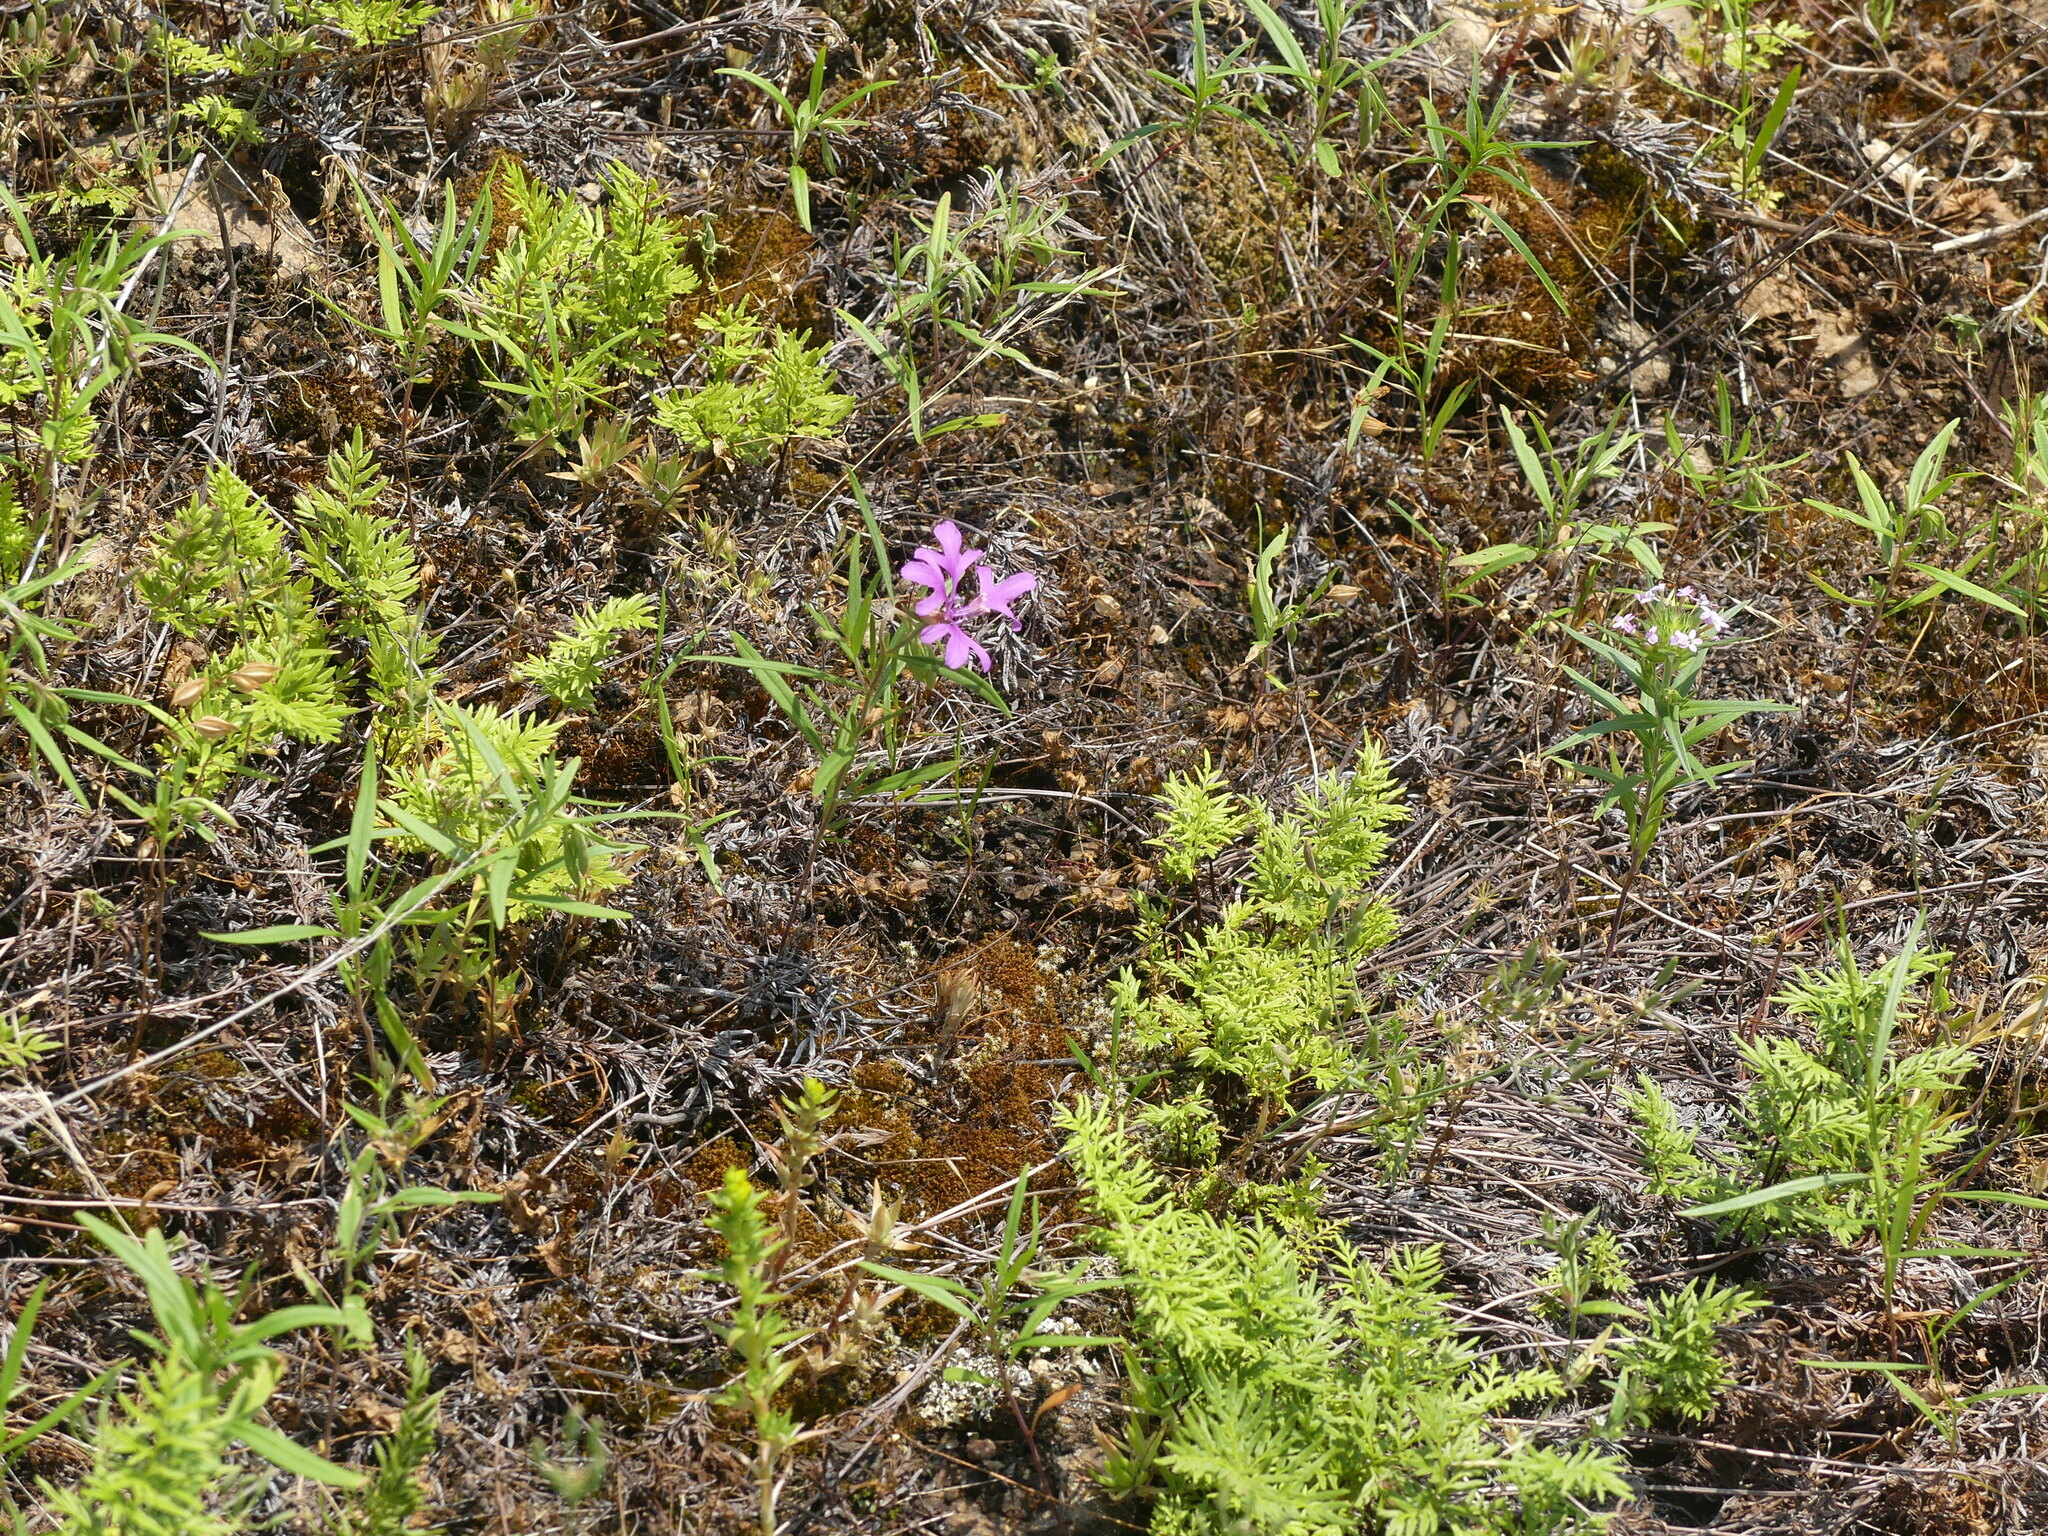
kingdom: Plantae
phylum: Tracheophyta
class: Magnoliopsida
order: Myrtales
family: Onagraceae
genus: Clarkia
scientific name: Clarkia pulchella
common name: Deer horn
